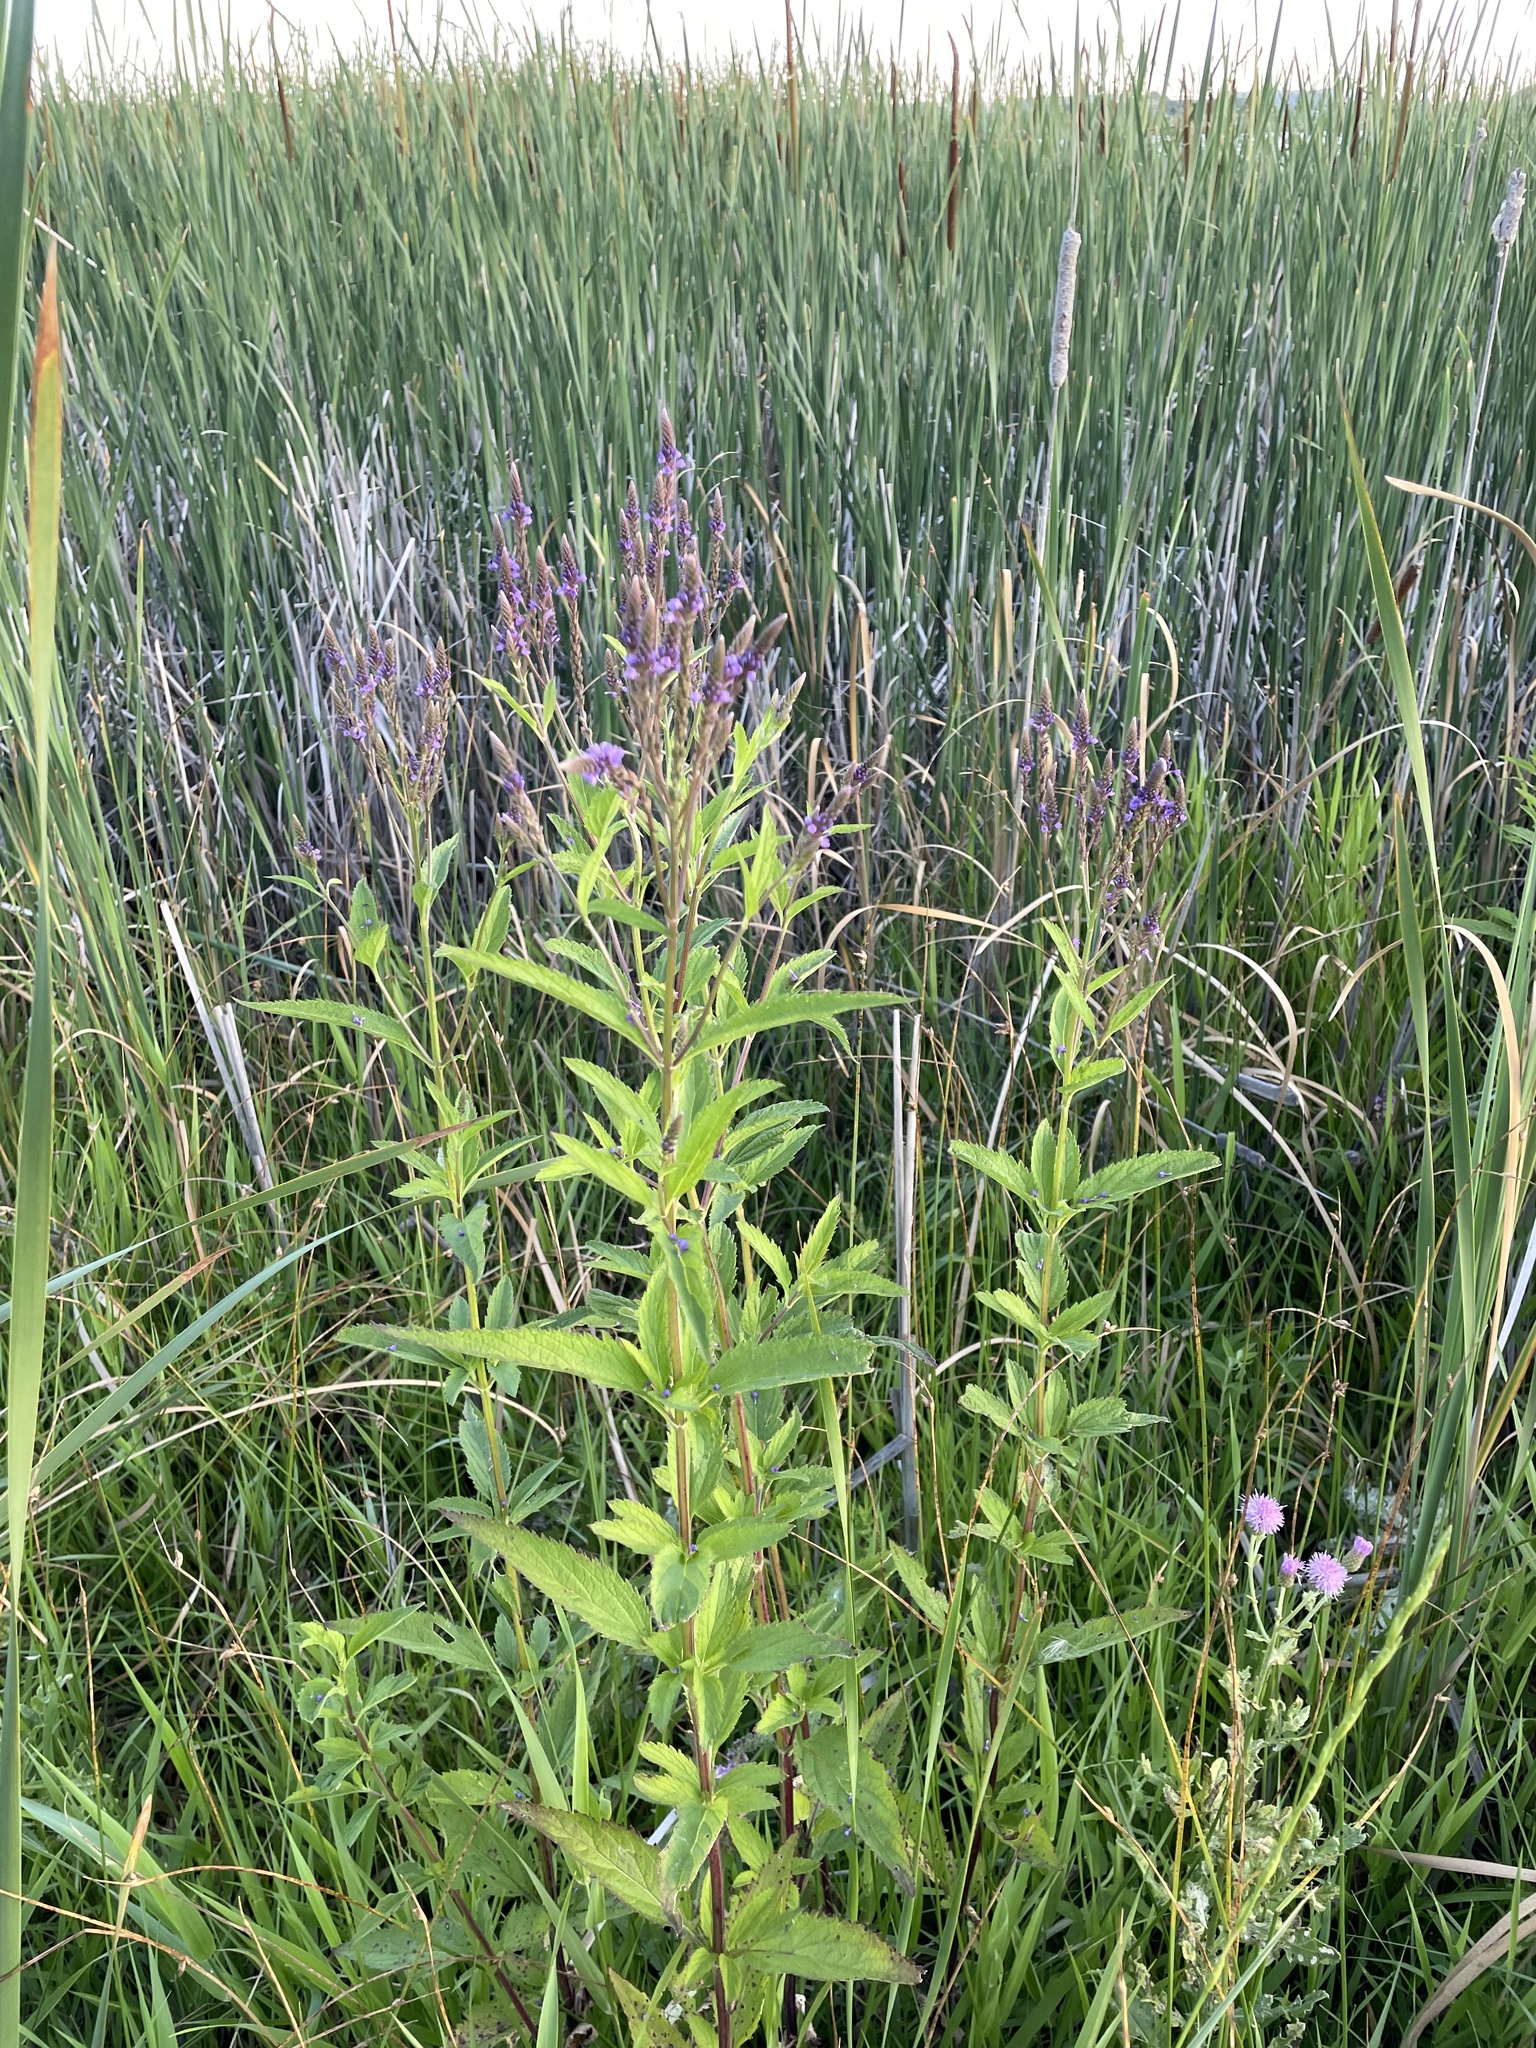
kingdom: Plantae
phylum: Tracheophyta
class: Magnoliopsida
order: Lamiales
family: Verbenaceae
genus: Verbena
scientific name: Verbena hastata
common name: American blue vervain
